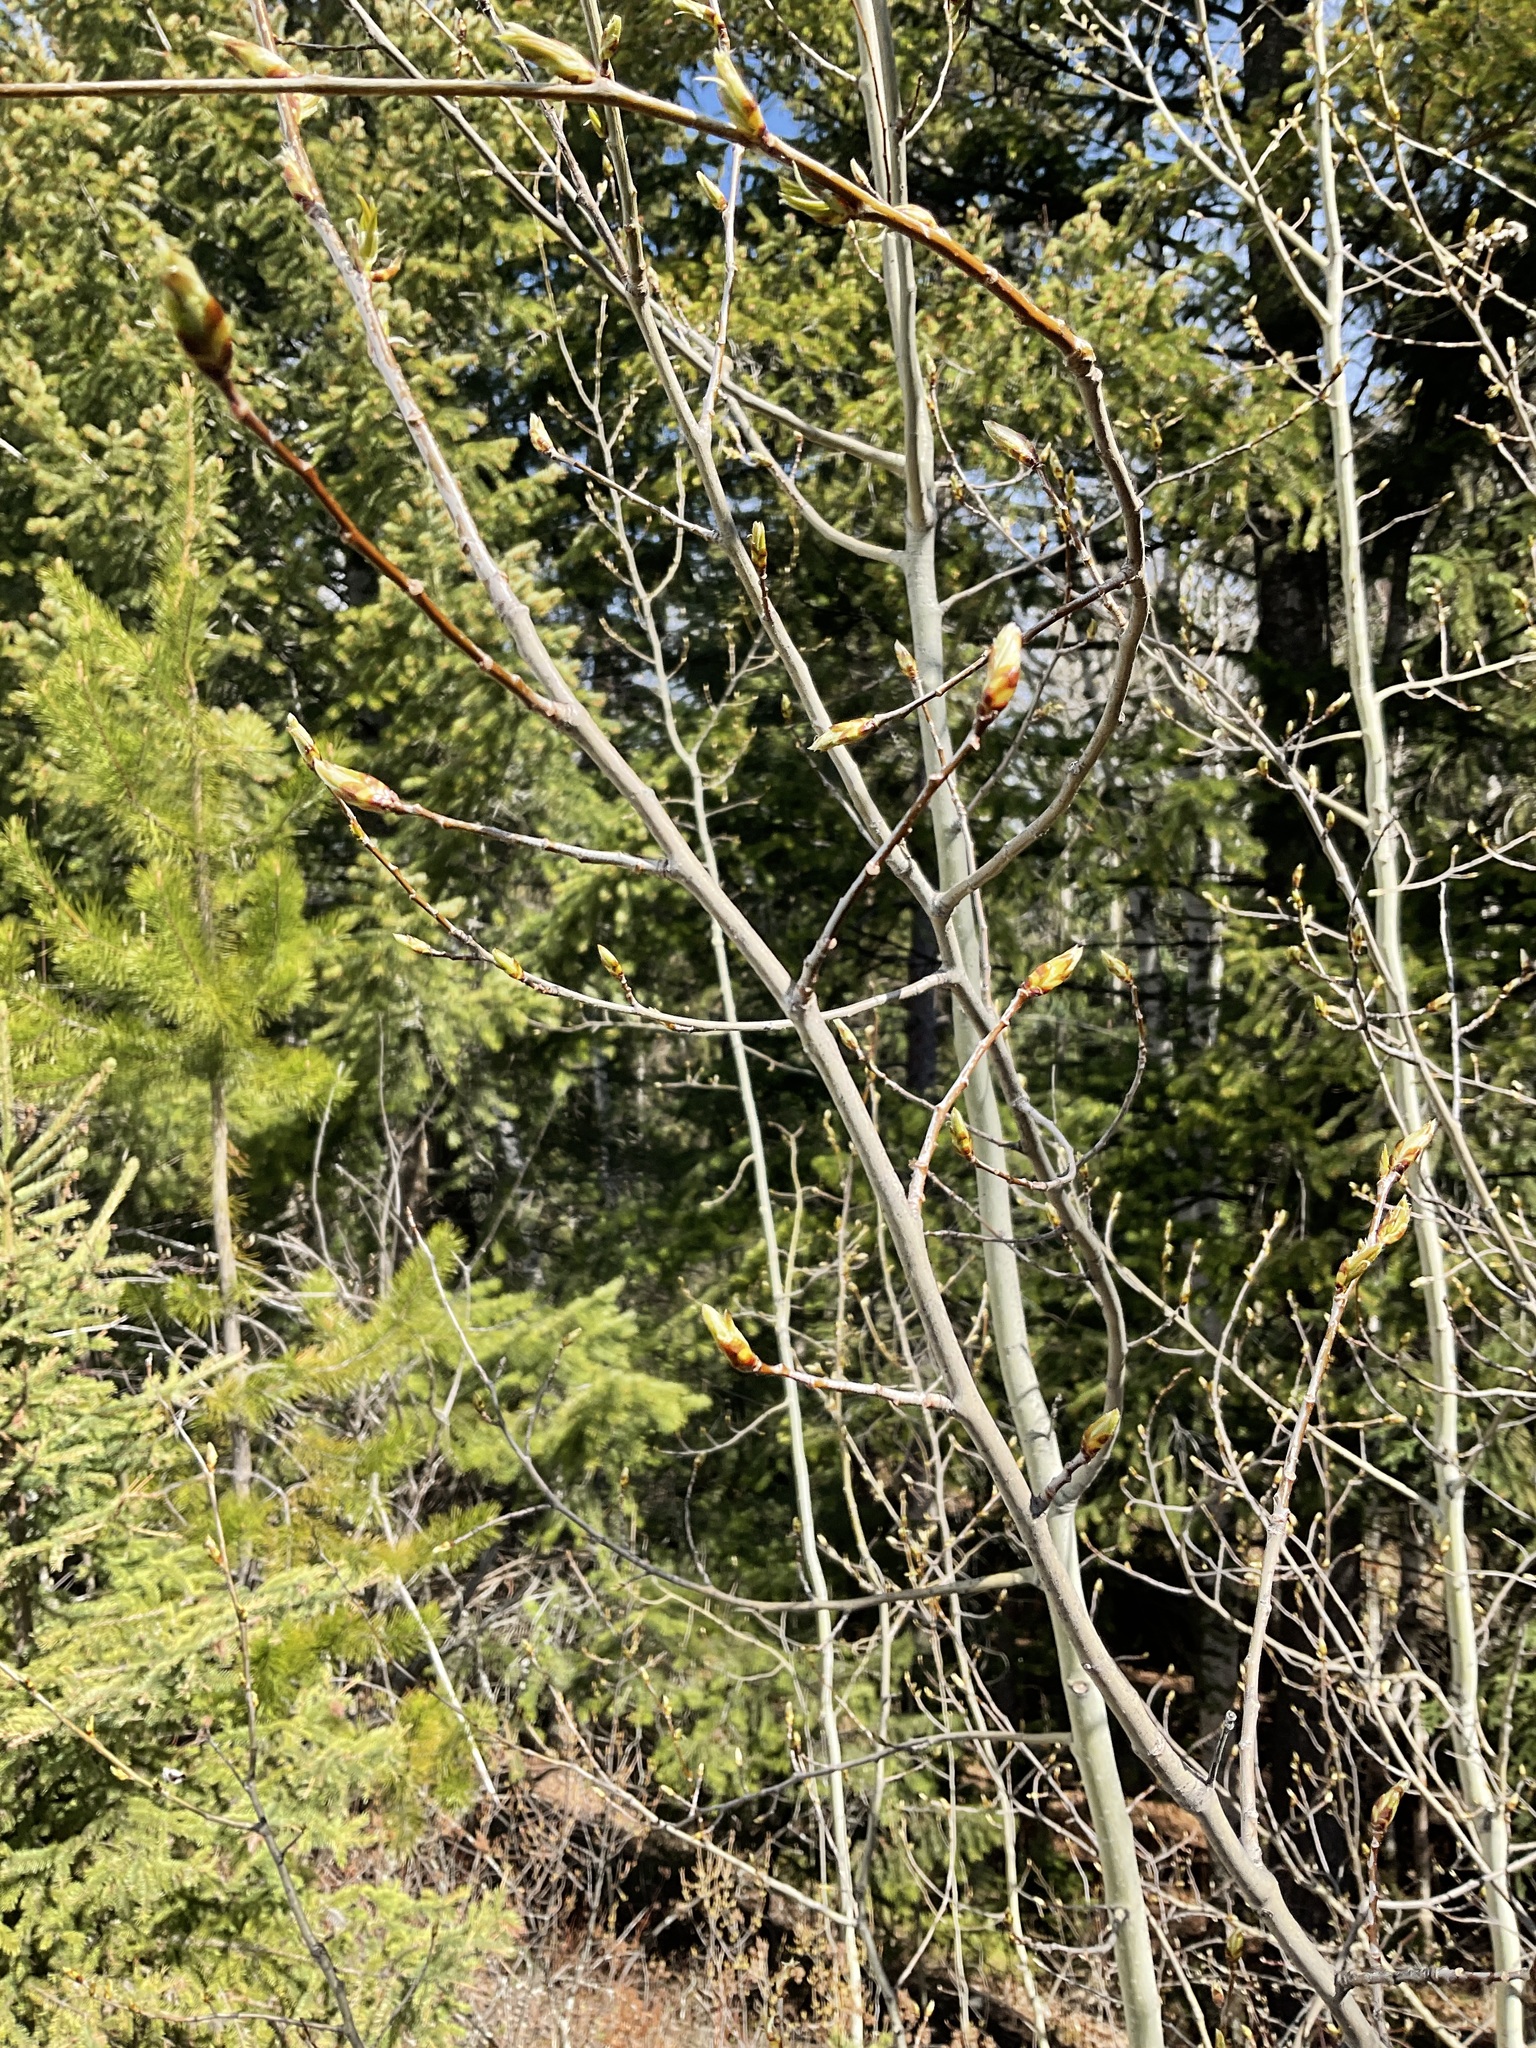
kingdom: Plantae
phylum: Tracheophyta
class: Magnoliopsida
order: Malpighiales
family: Salicaceae
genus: Populus
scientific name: Populus tremuloides
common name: Quaking aspen
